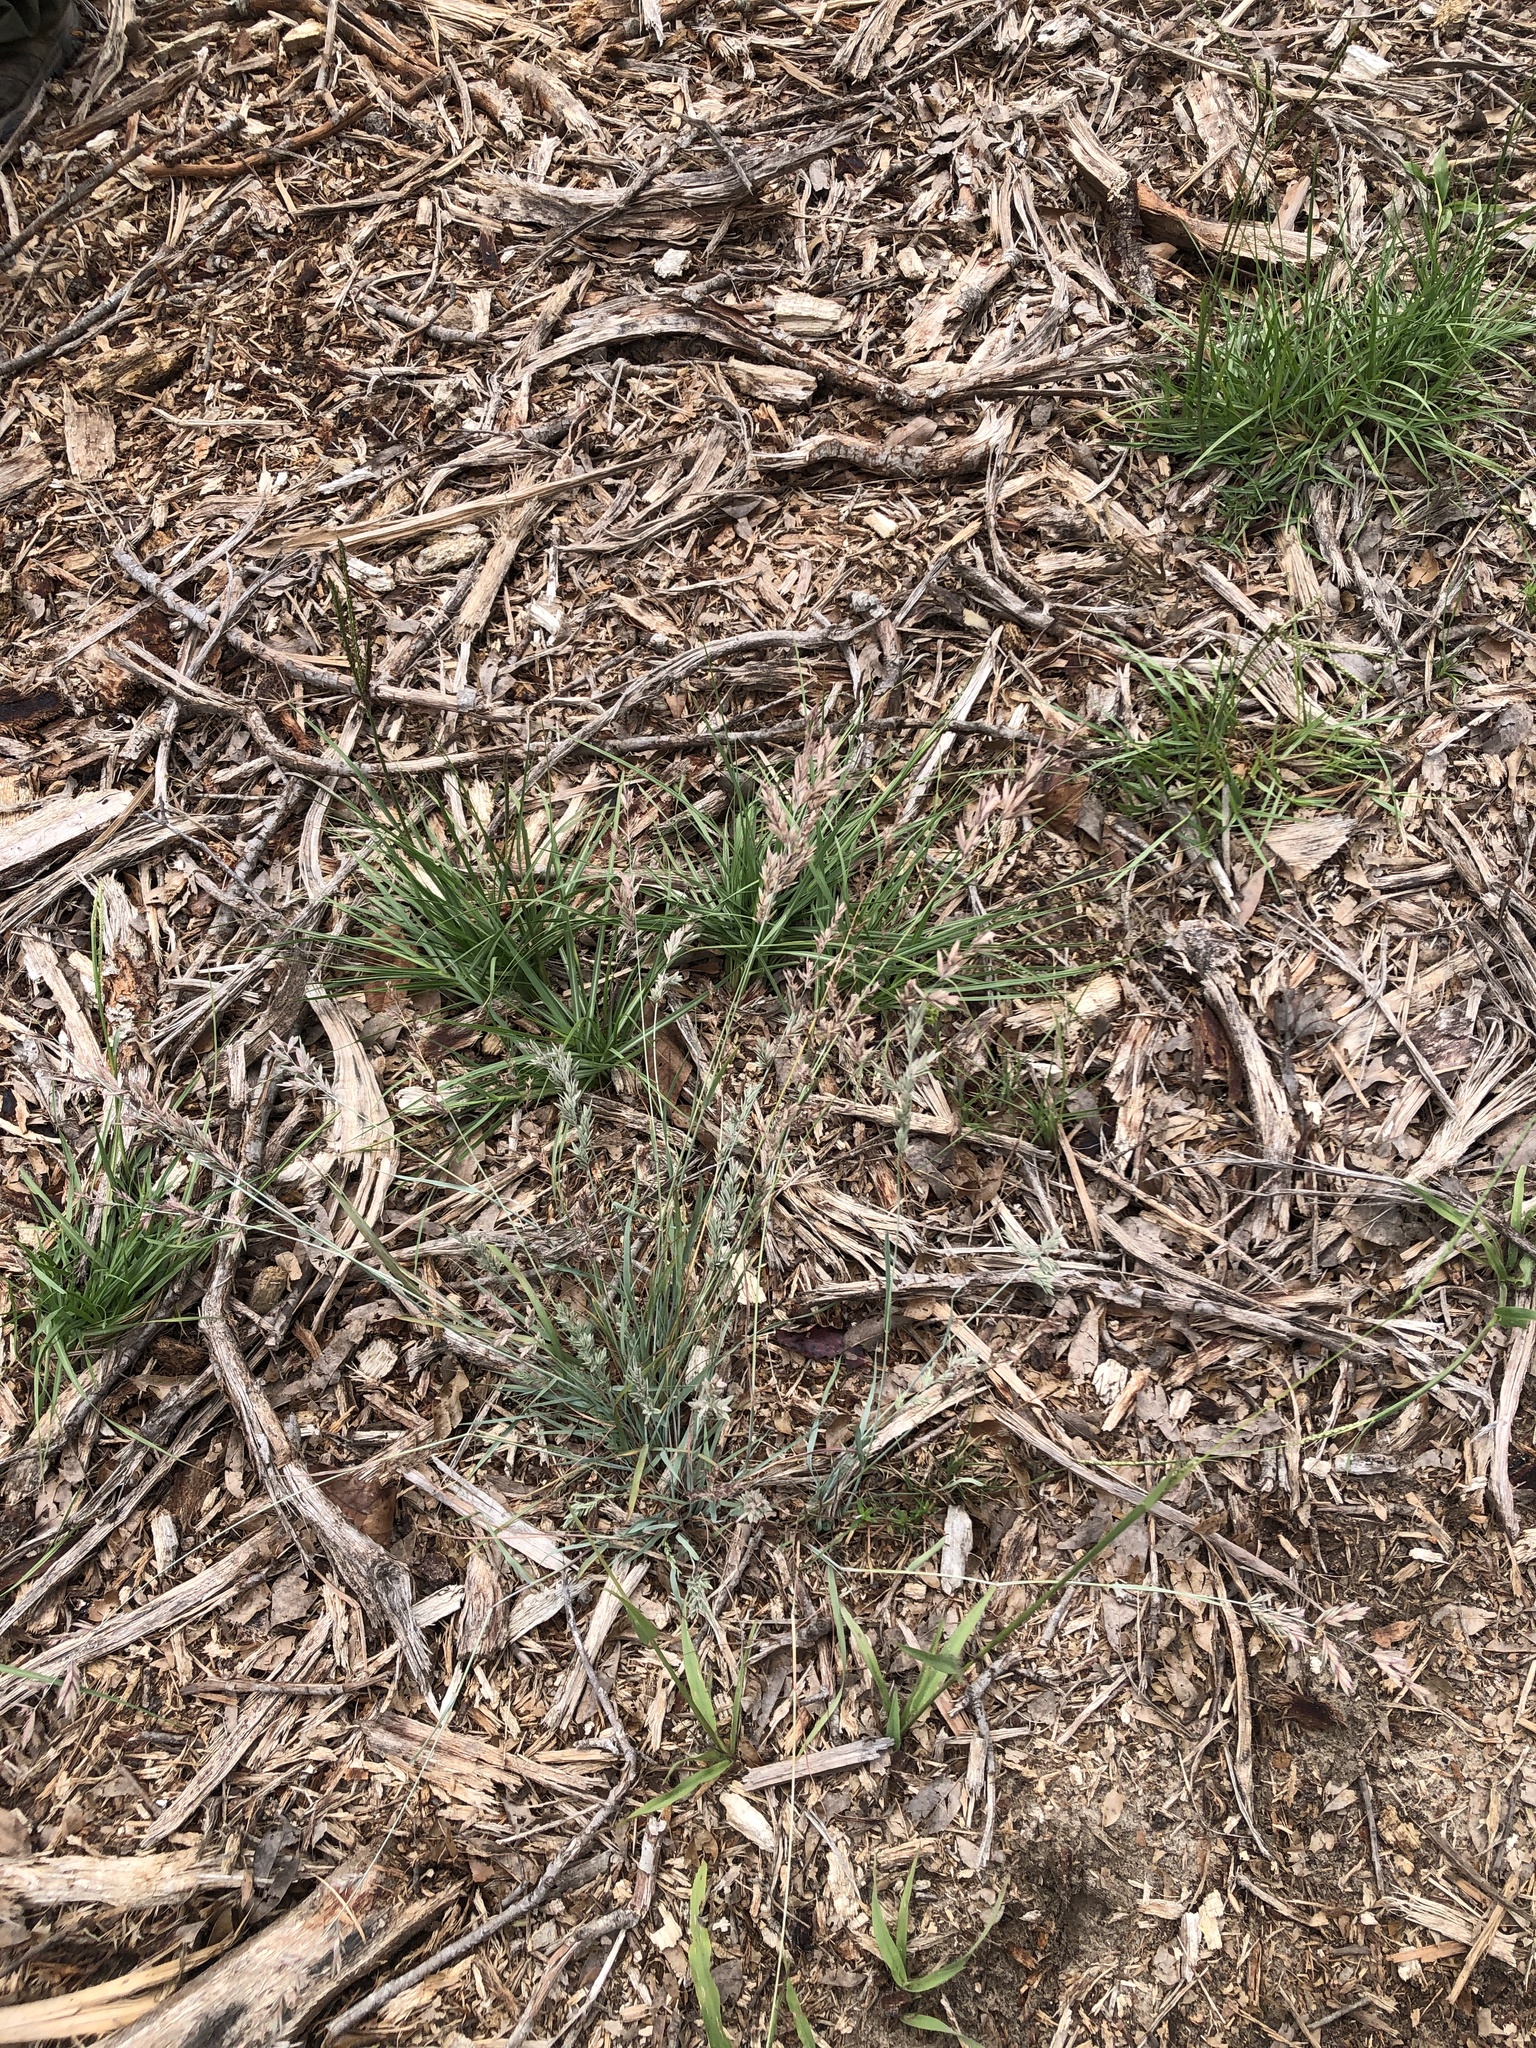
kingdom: Plantae
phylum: Tracheophyta
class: Liliopsida
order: Poales
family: Poaceae
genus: Eragrostis
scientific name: Eragrostis secundiflora
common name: Red love grass
